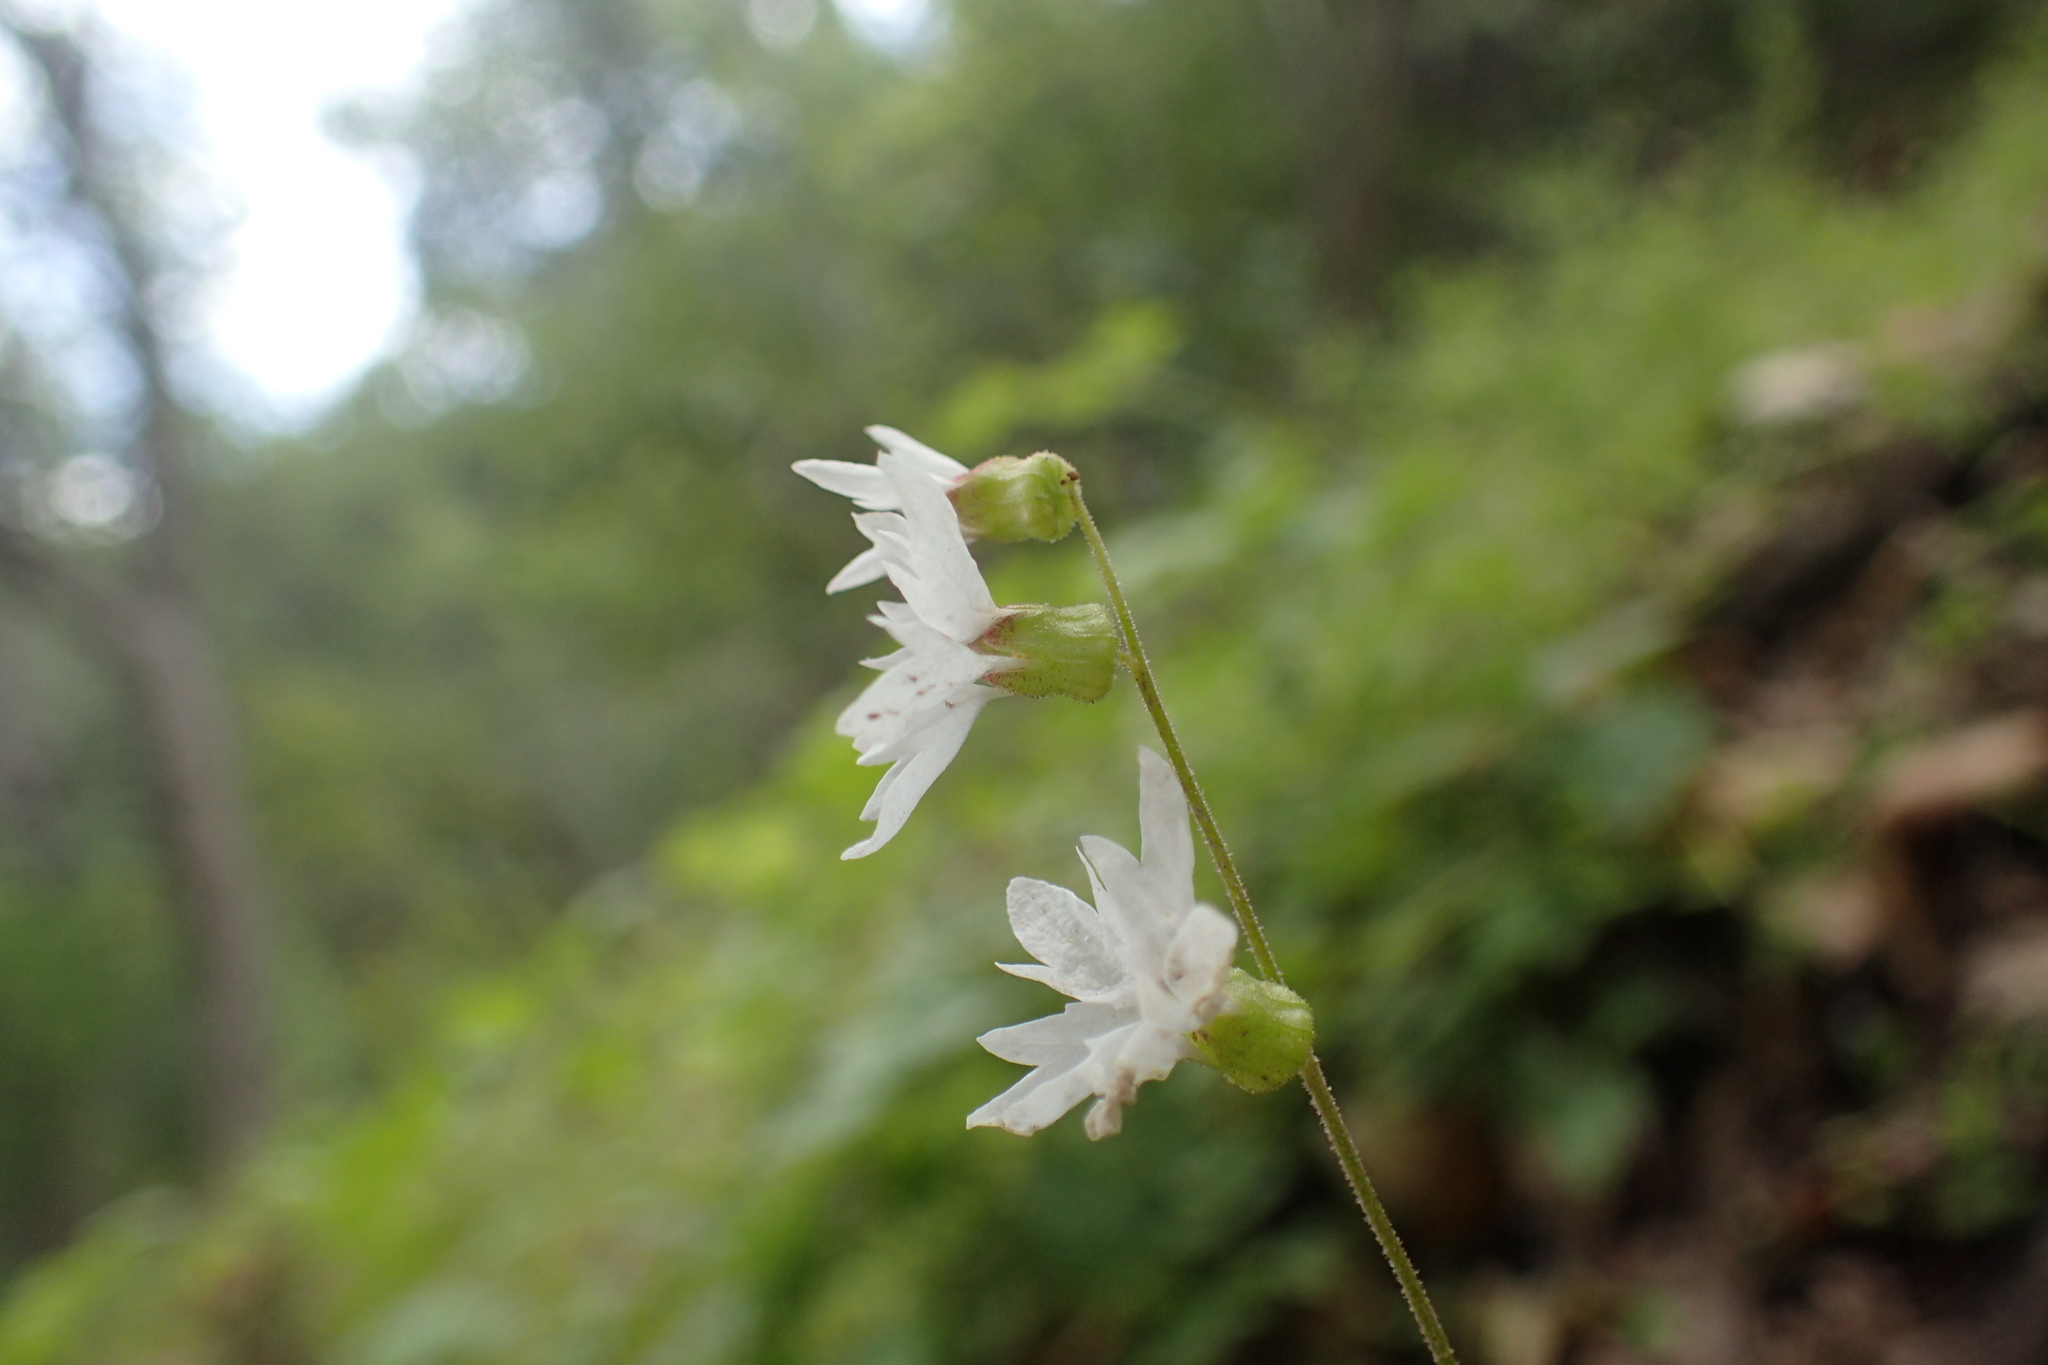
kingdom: Plantae
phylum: Tracheophyta
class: Magnoliopsida
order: Saxifragales
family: Saxifragaceae
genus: Lithophragma
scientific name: Lithophragma heterophyllum
